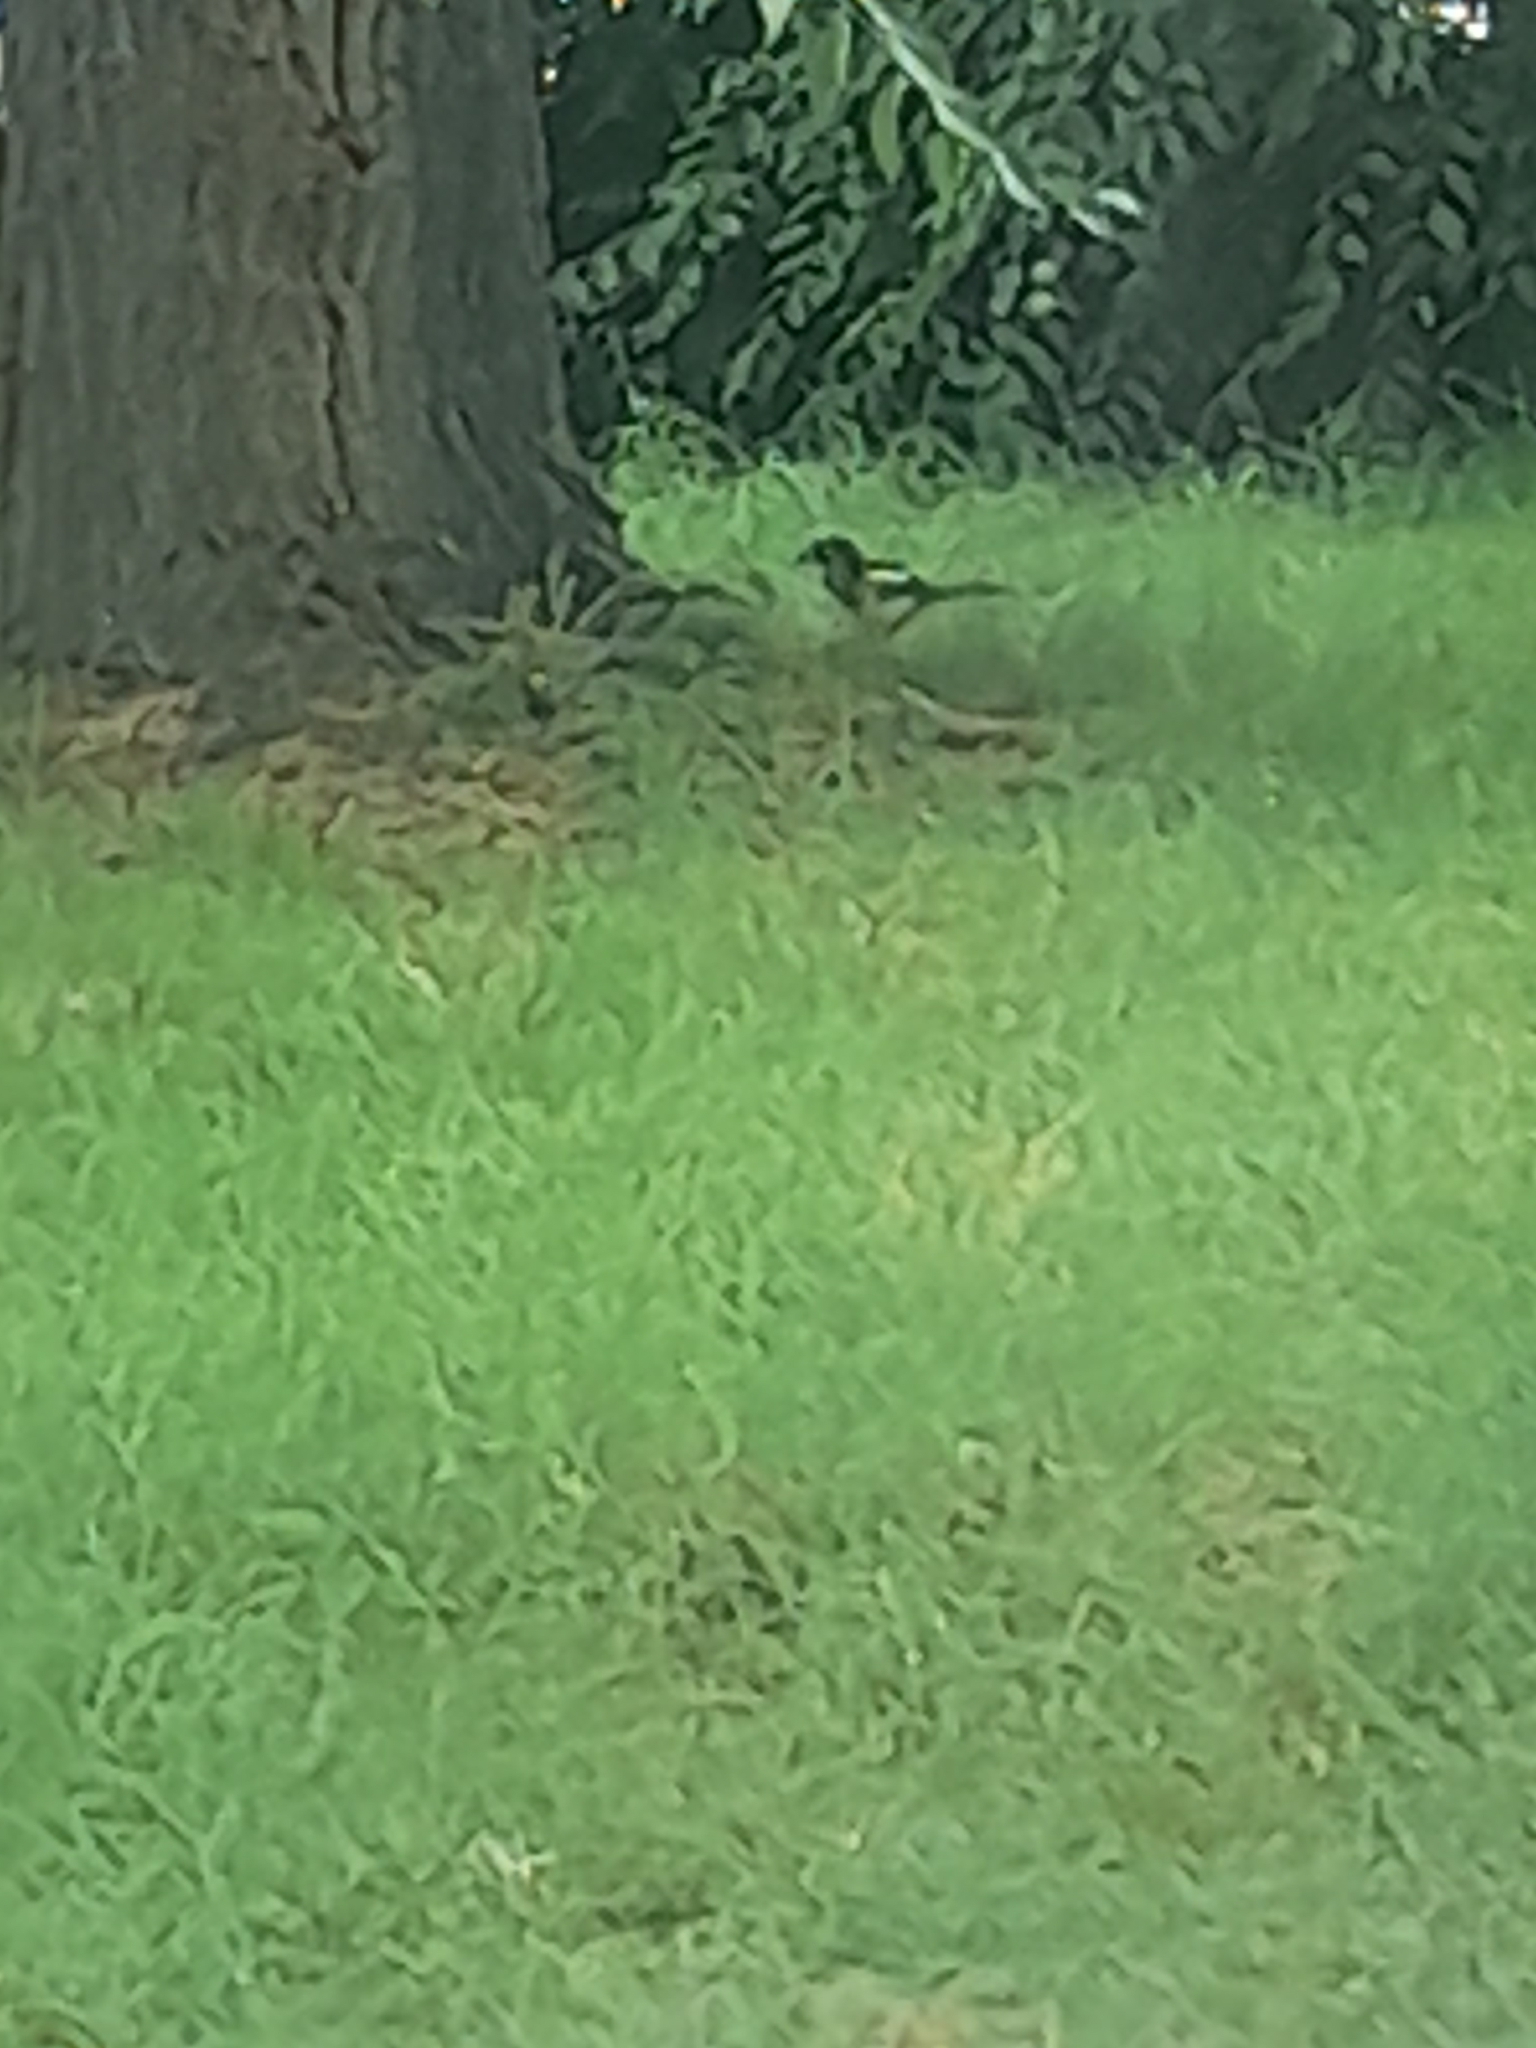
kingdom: Animalia
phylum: Chordata
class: Aves
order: Passeriformes
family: Corvidae
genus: Pica
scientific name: Pica pica
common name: Eurasian magpie
